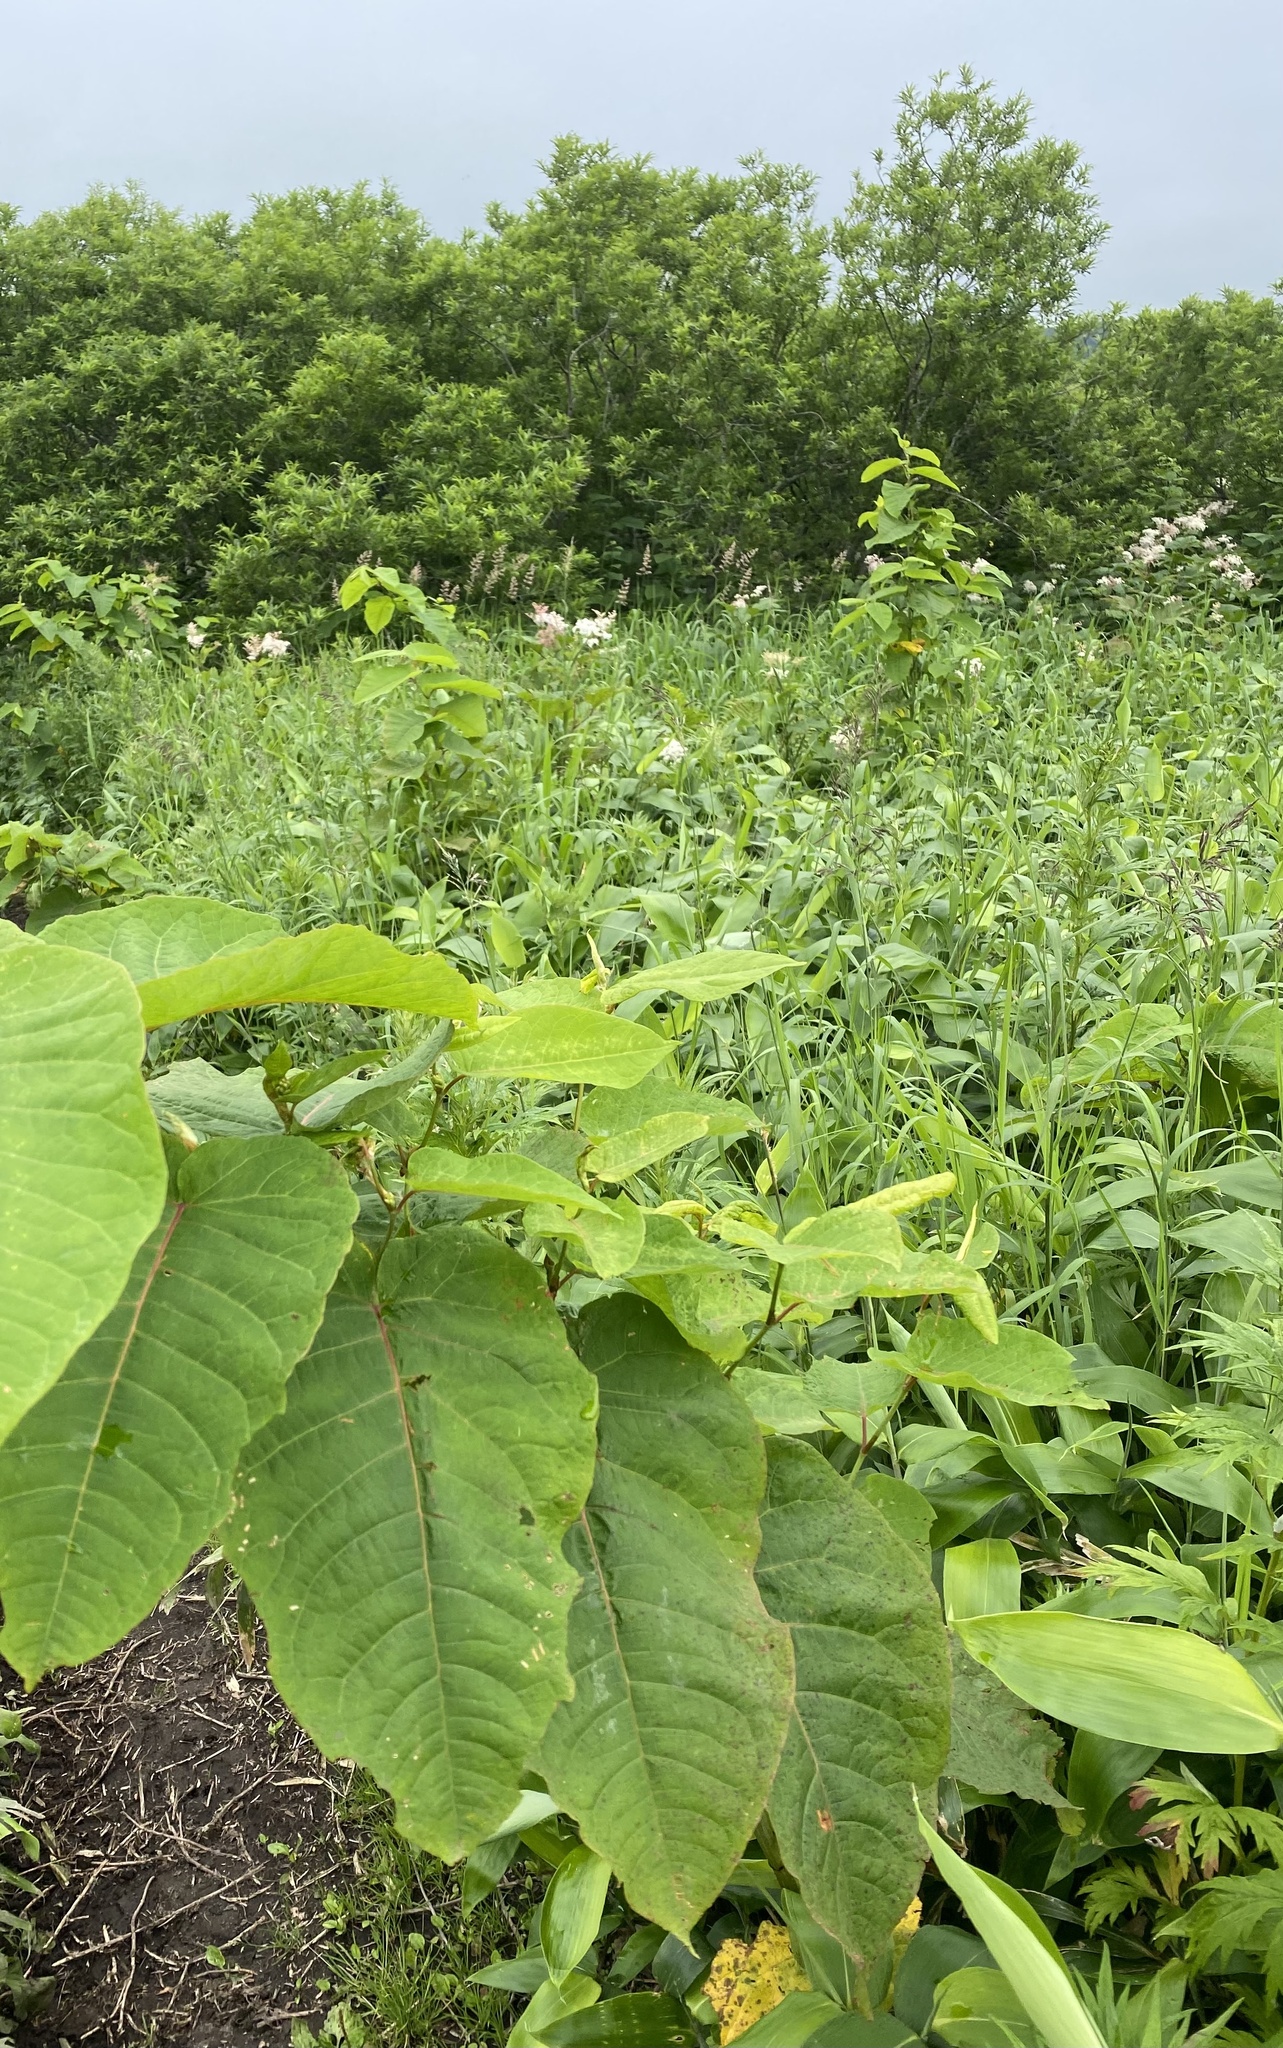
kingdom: Plantae
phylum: Tracheophyta
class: Magnoliopsida
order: Caryophyllales
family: Polygonaceae
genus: Reynoutria
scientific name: Reynoutria sachalinensis
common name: Giant knotweed
